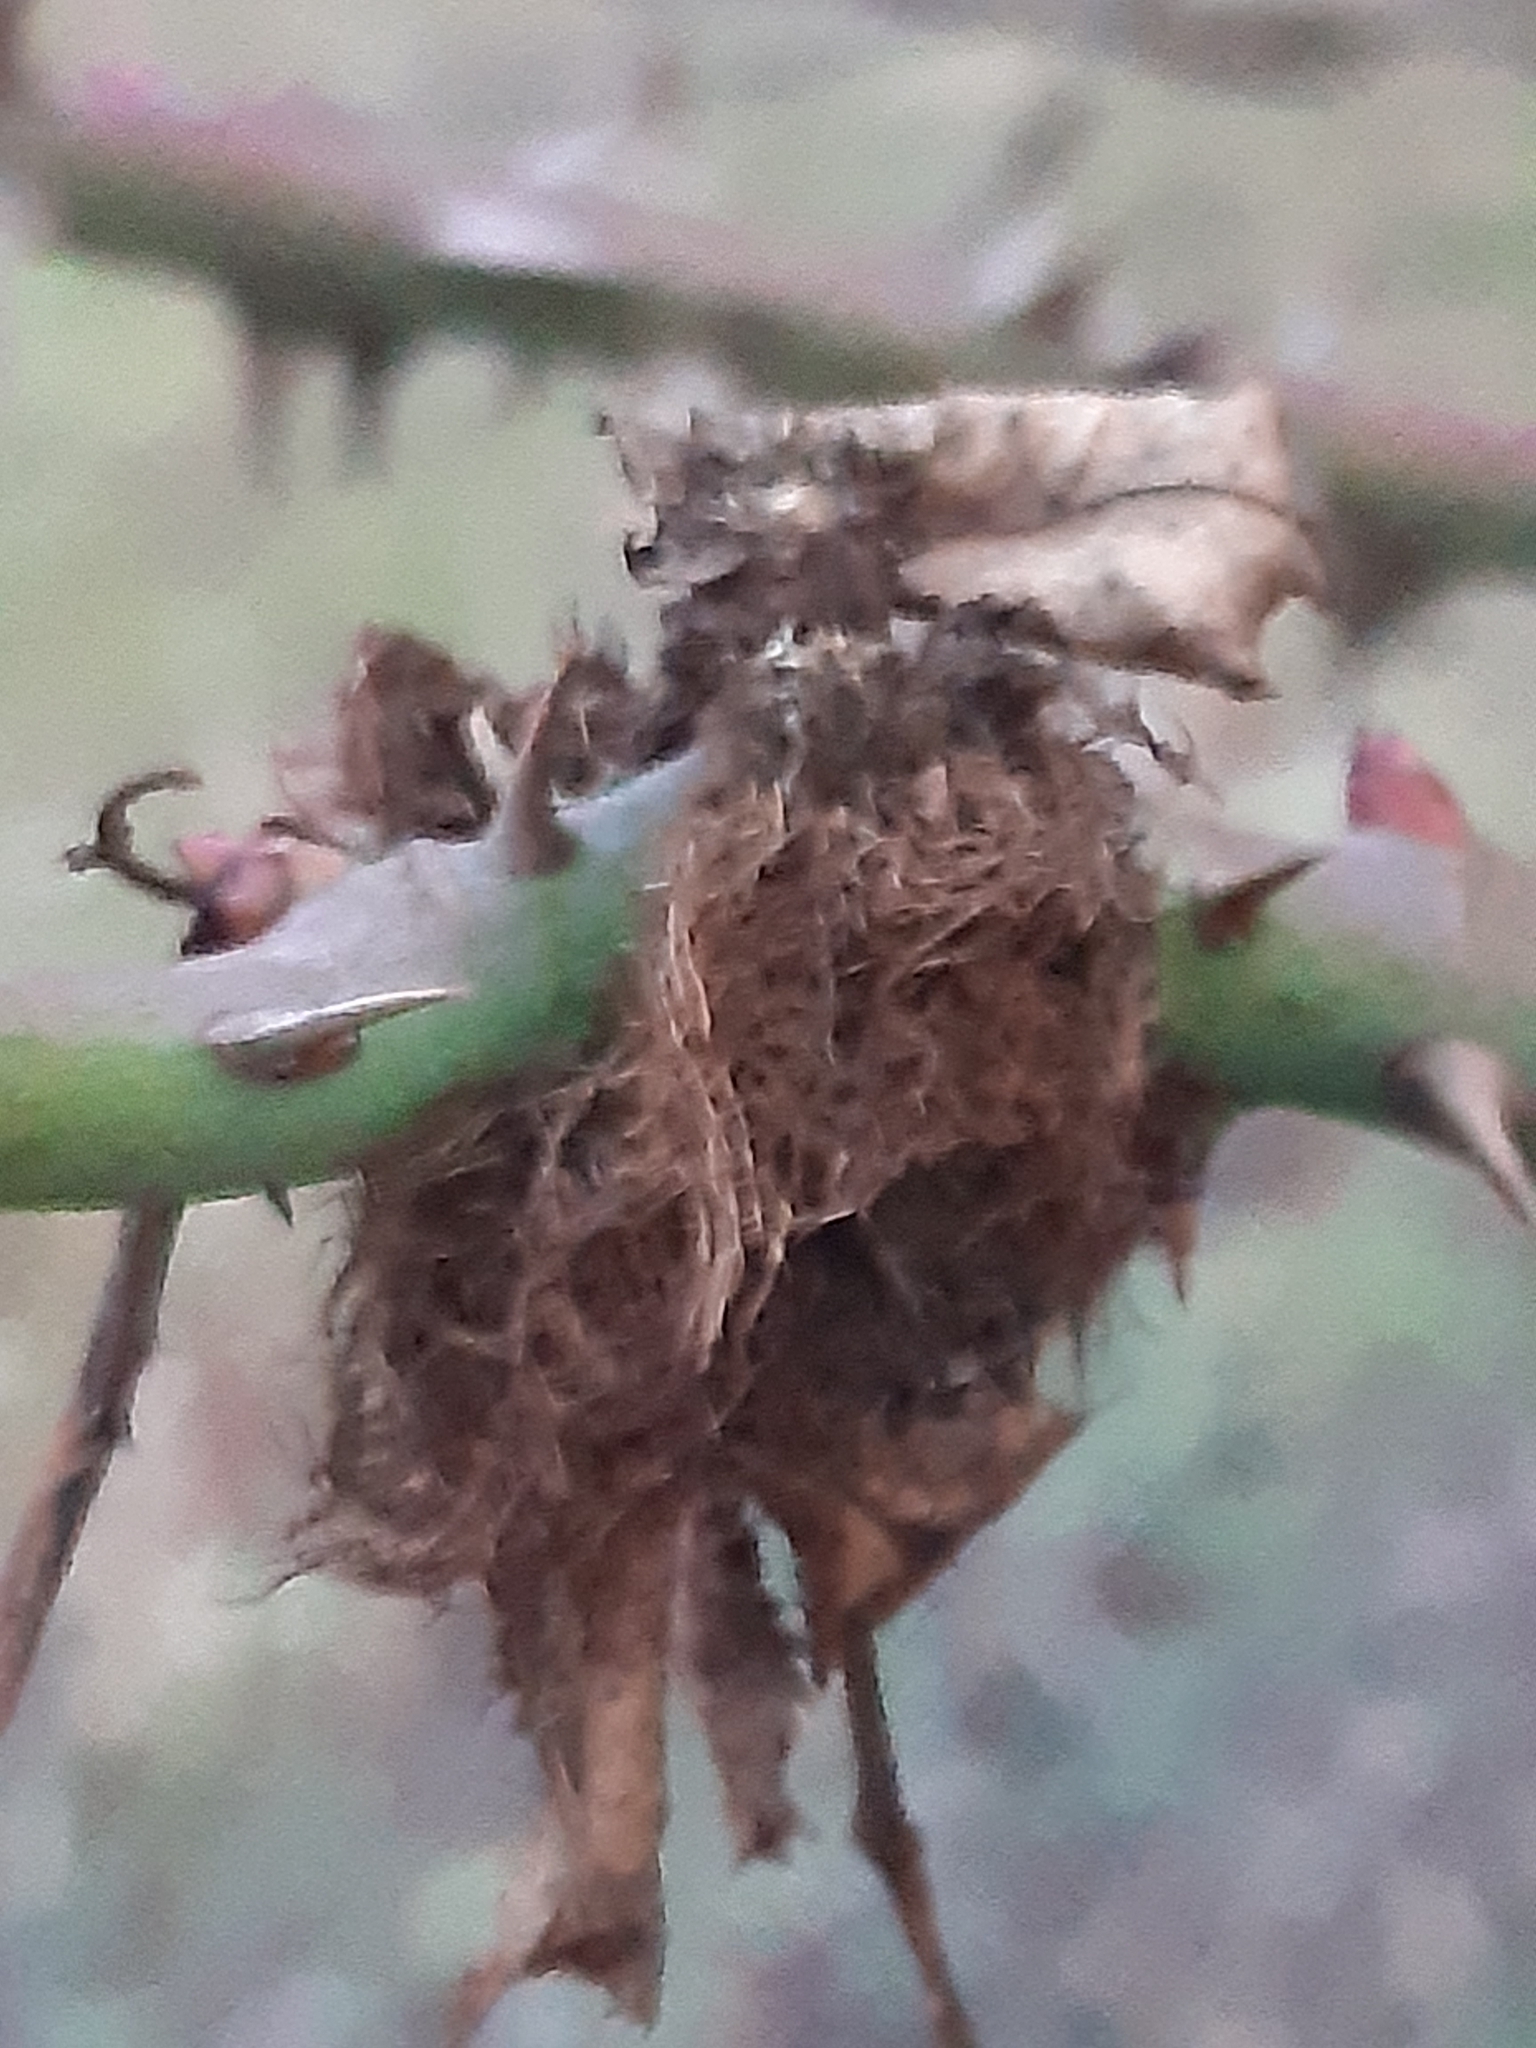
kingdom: Animalia
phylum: Arthropoda
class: Insecta
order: Hymenoptera
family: Cynipidae
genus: Diplolepis
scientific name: Diplolepis rosae
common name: Bedeguar gall
